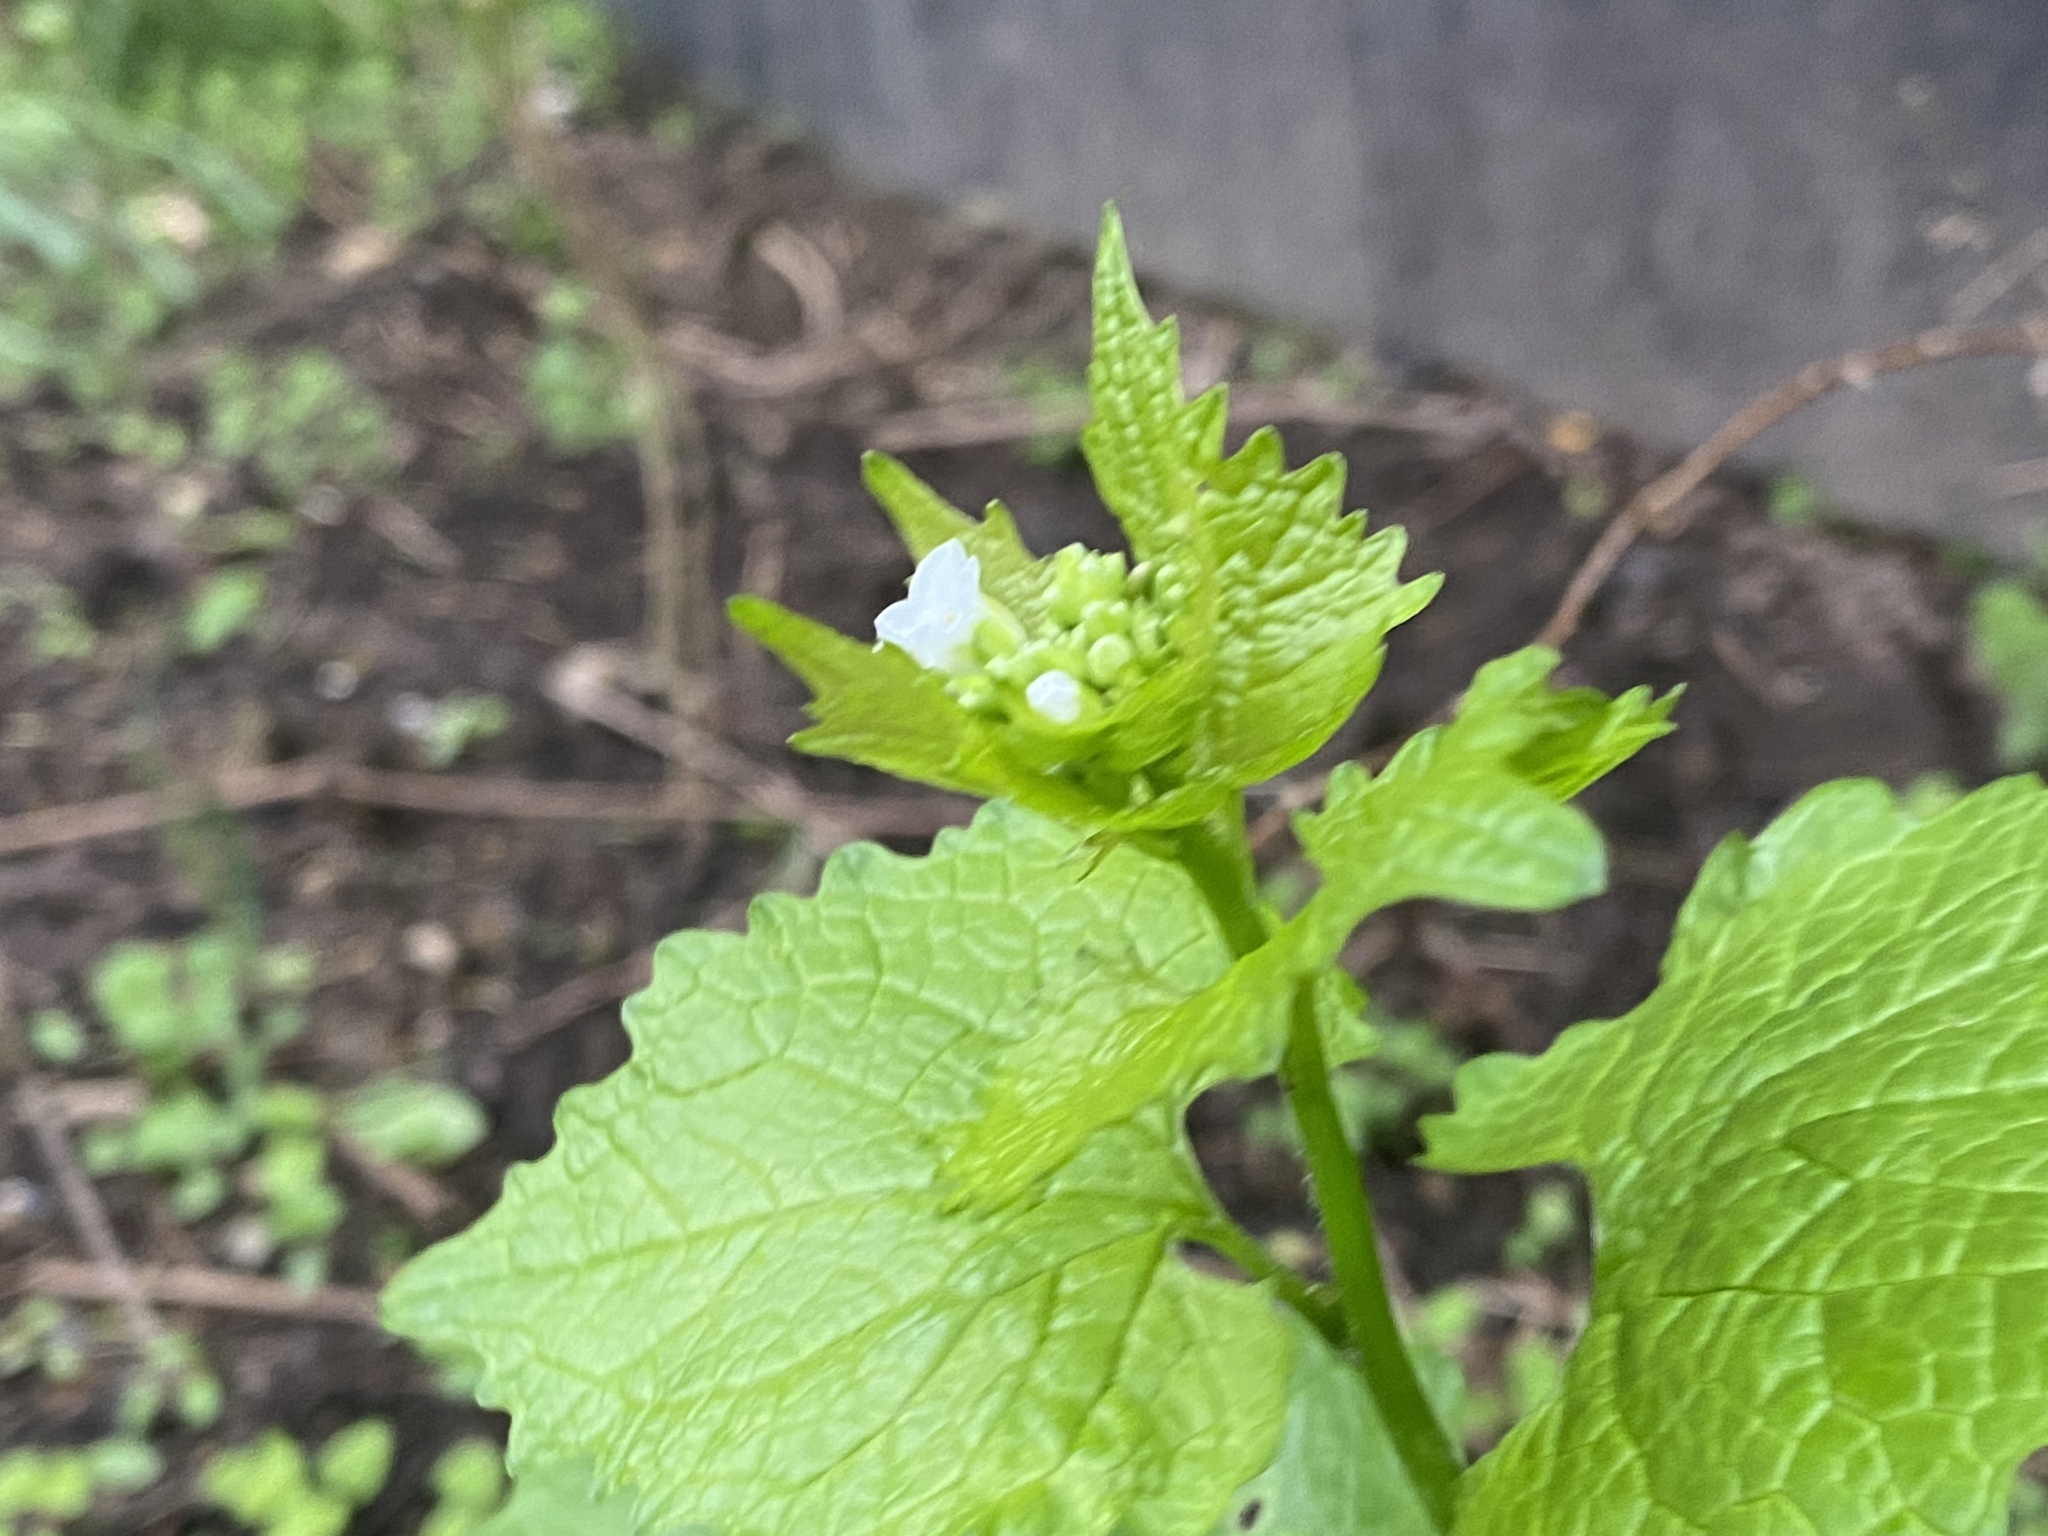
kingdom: Plantae
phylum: Tracheophyta
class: Magnoliopsida
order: Brassicales
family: Brassicaceae
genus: Alliaria
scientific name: Alliaria petiolata
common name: Garlic mustard
